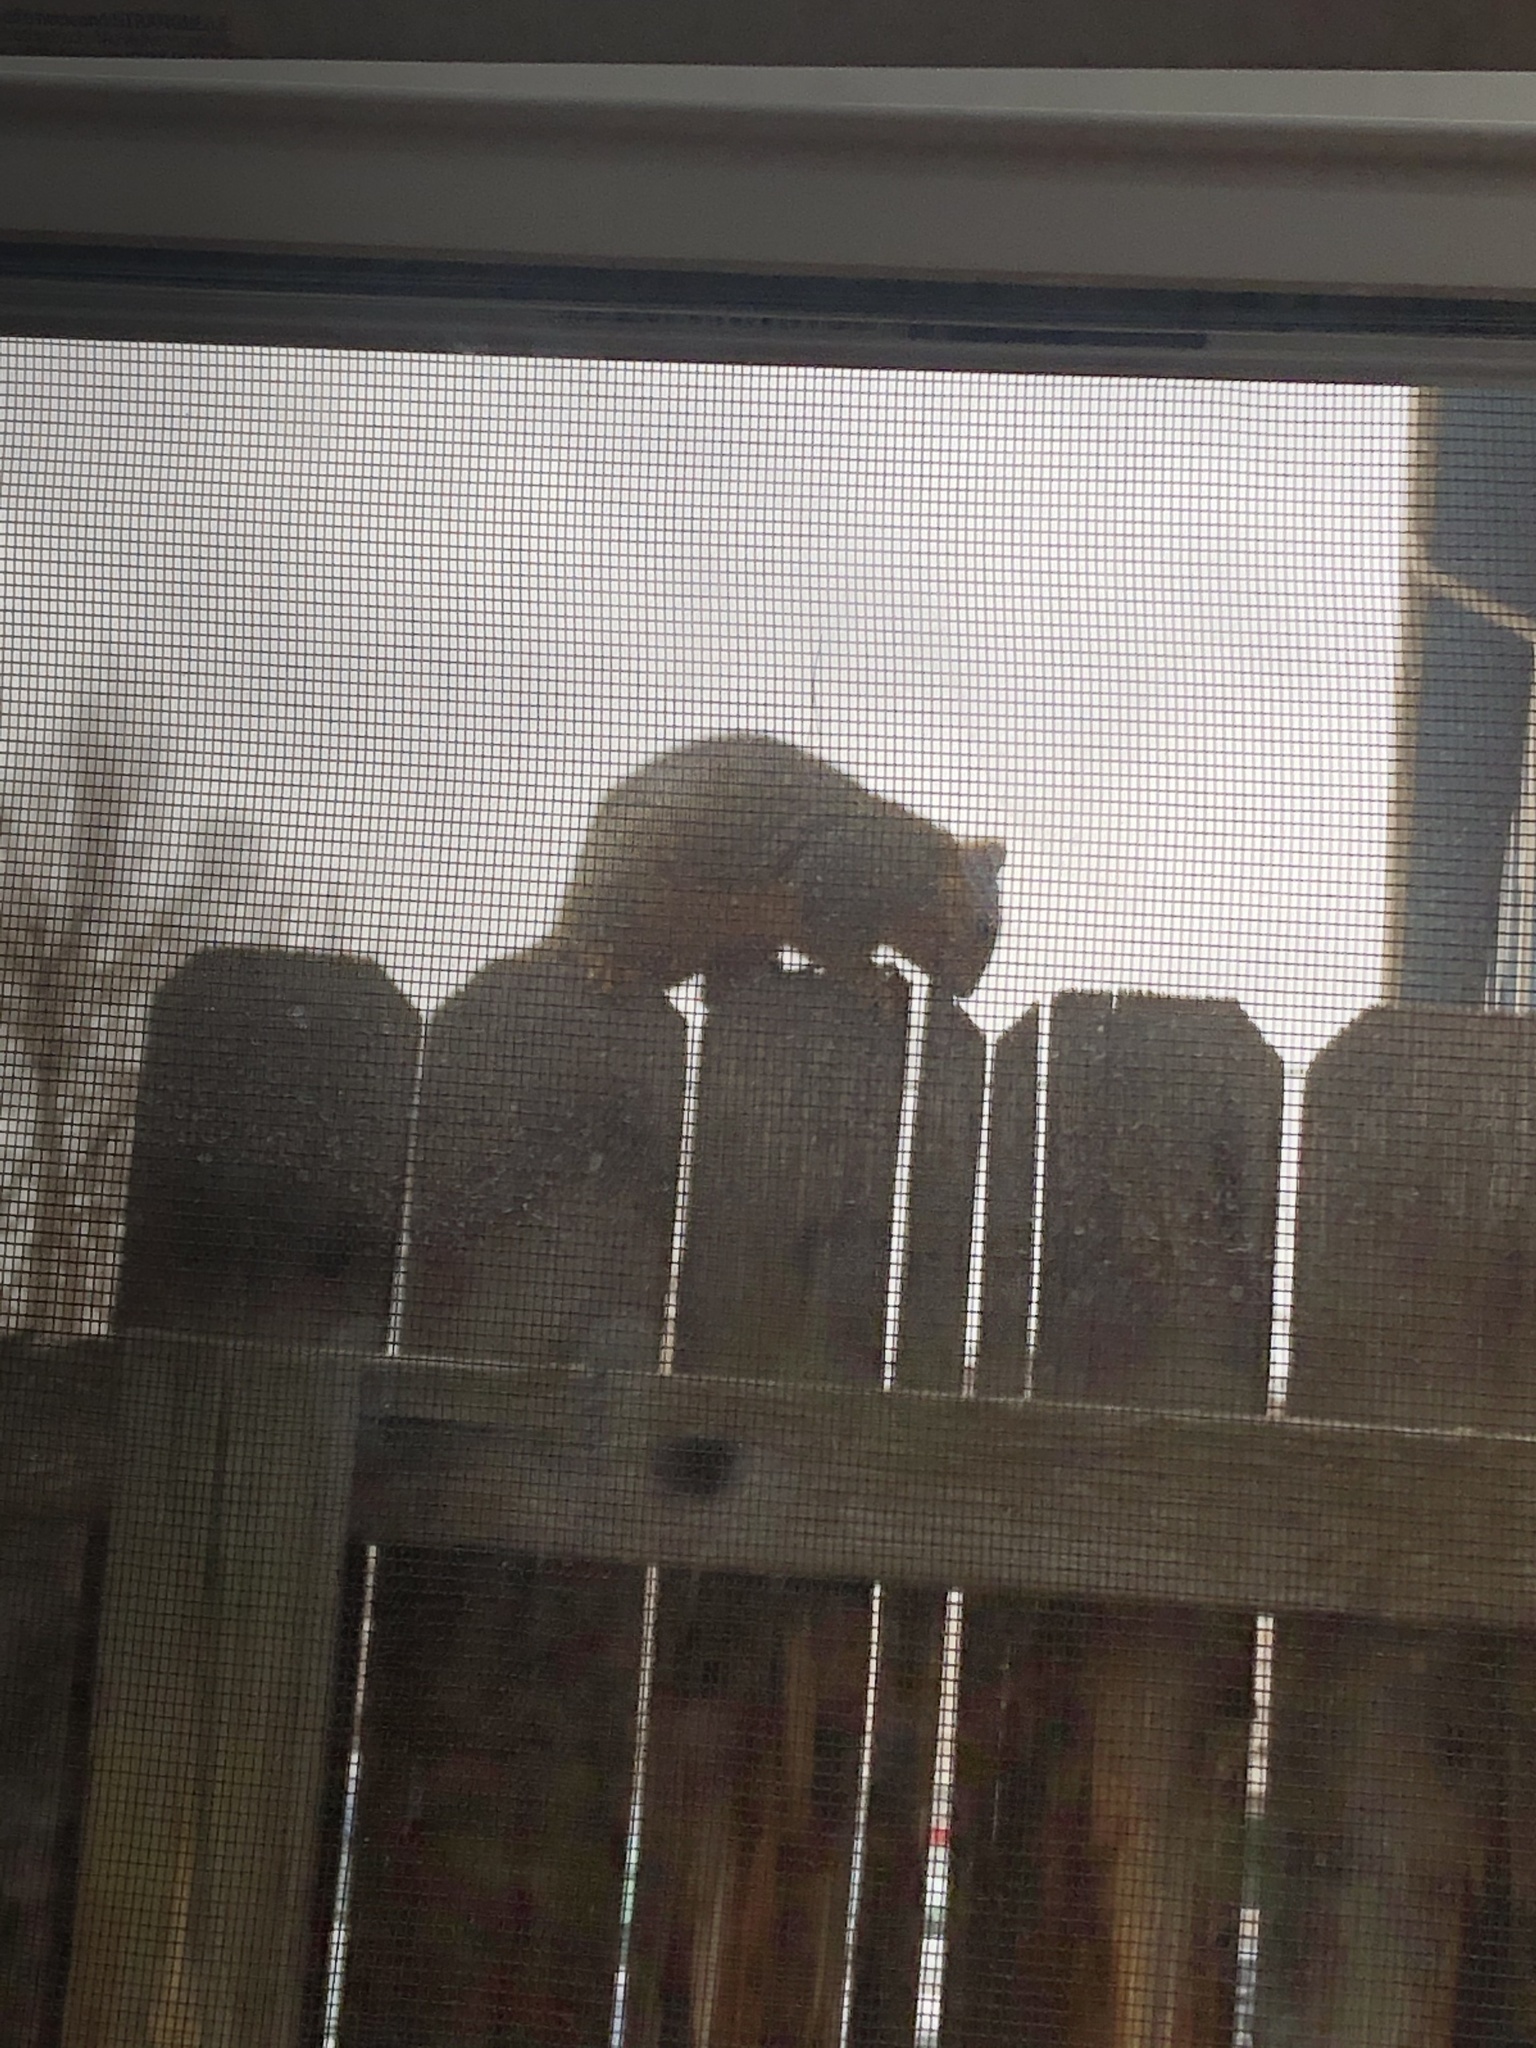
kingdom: Animalia
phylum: Chordata
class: Mammalia
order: Rodentia
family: Sciuridae
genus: Sciurus
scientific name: Sciurus niger
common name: Fox squirrel
